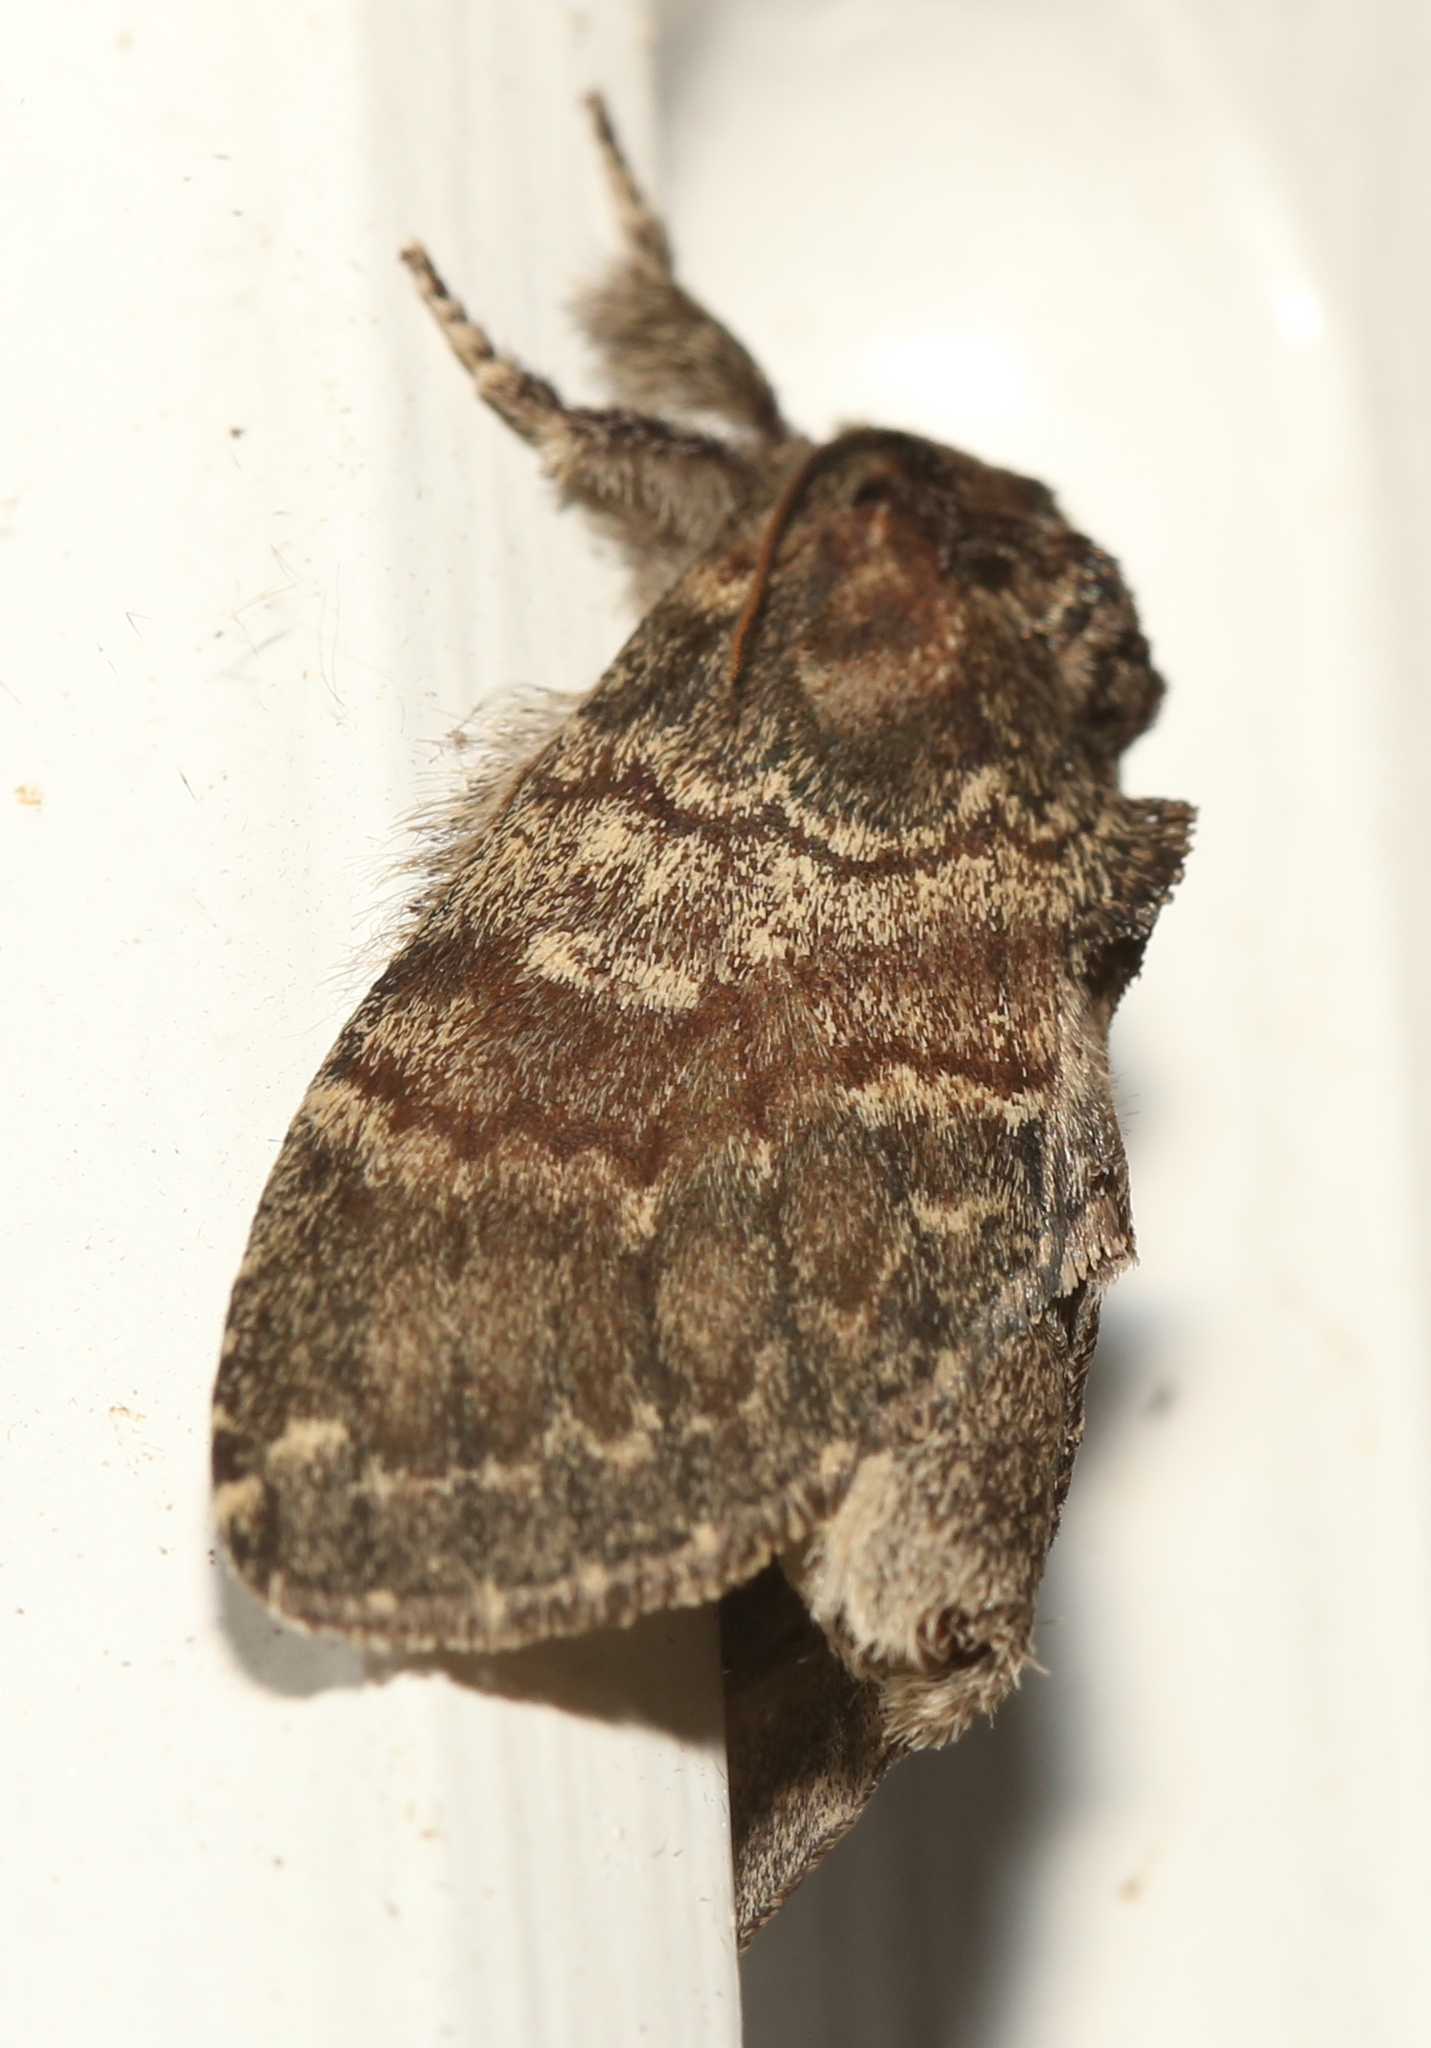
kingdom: Animalia
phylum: Arthropoda
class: Insecta
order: Lepidoptera
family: Notodontidae
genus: Peridea
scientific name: Peridea
